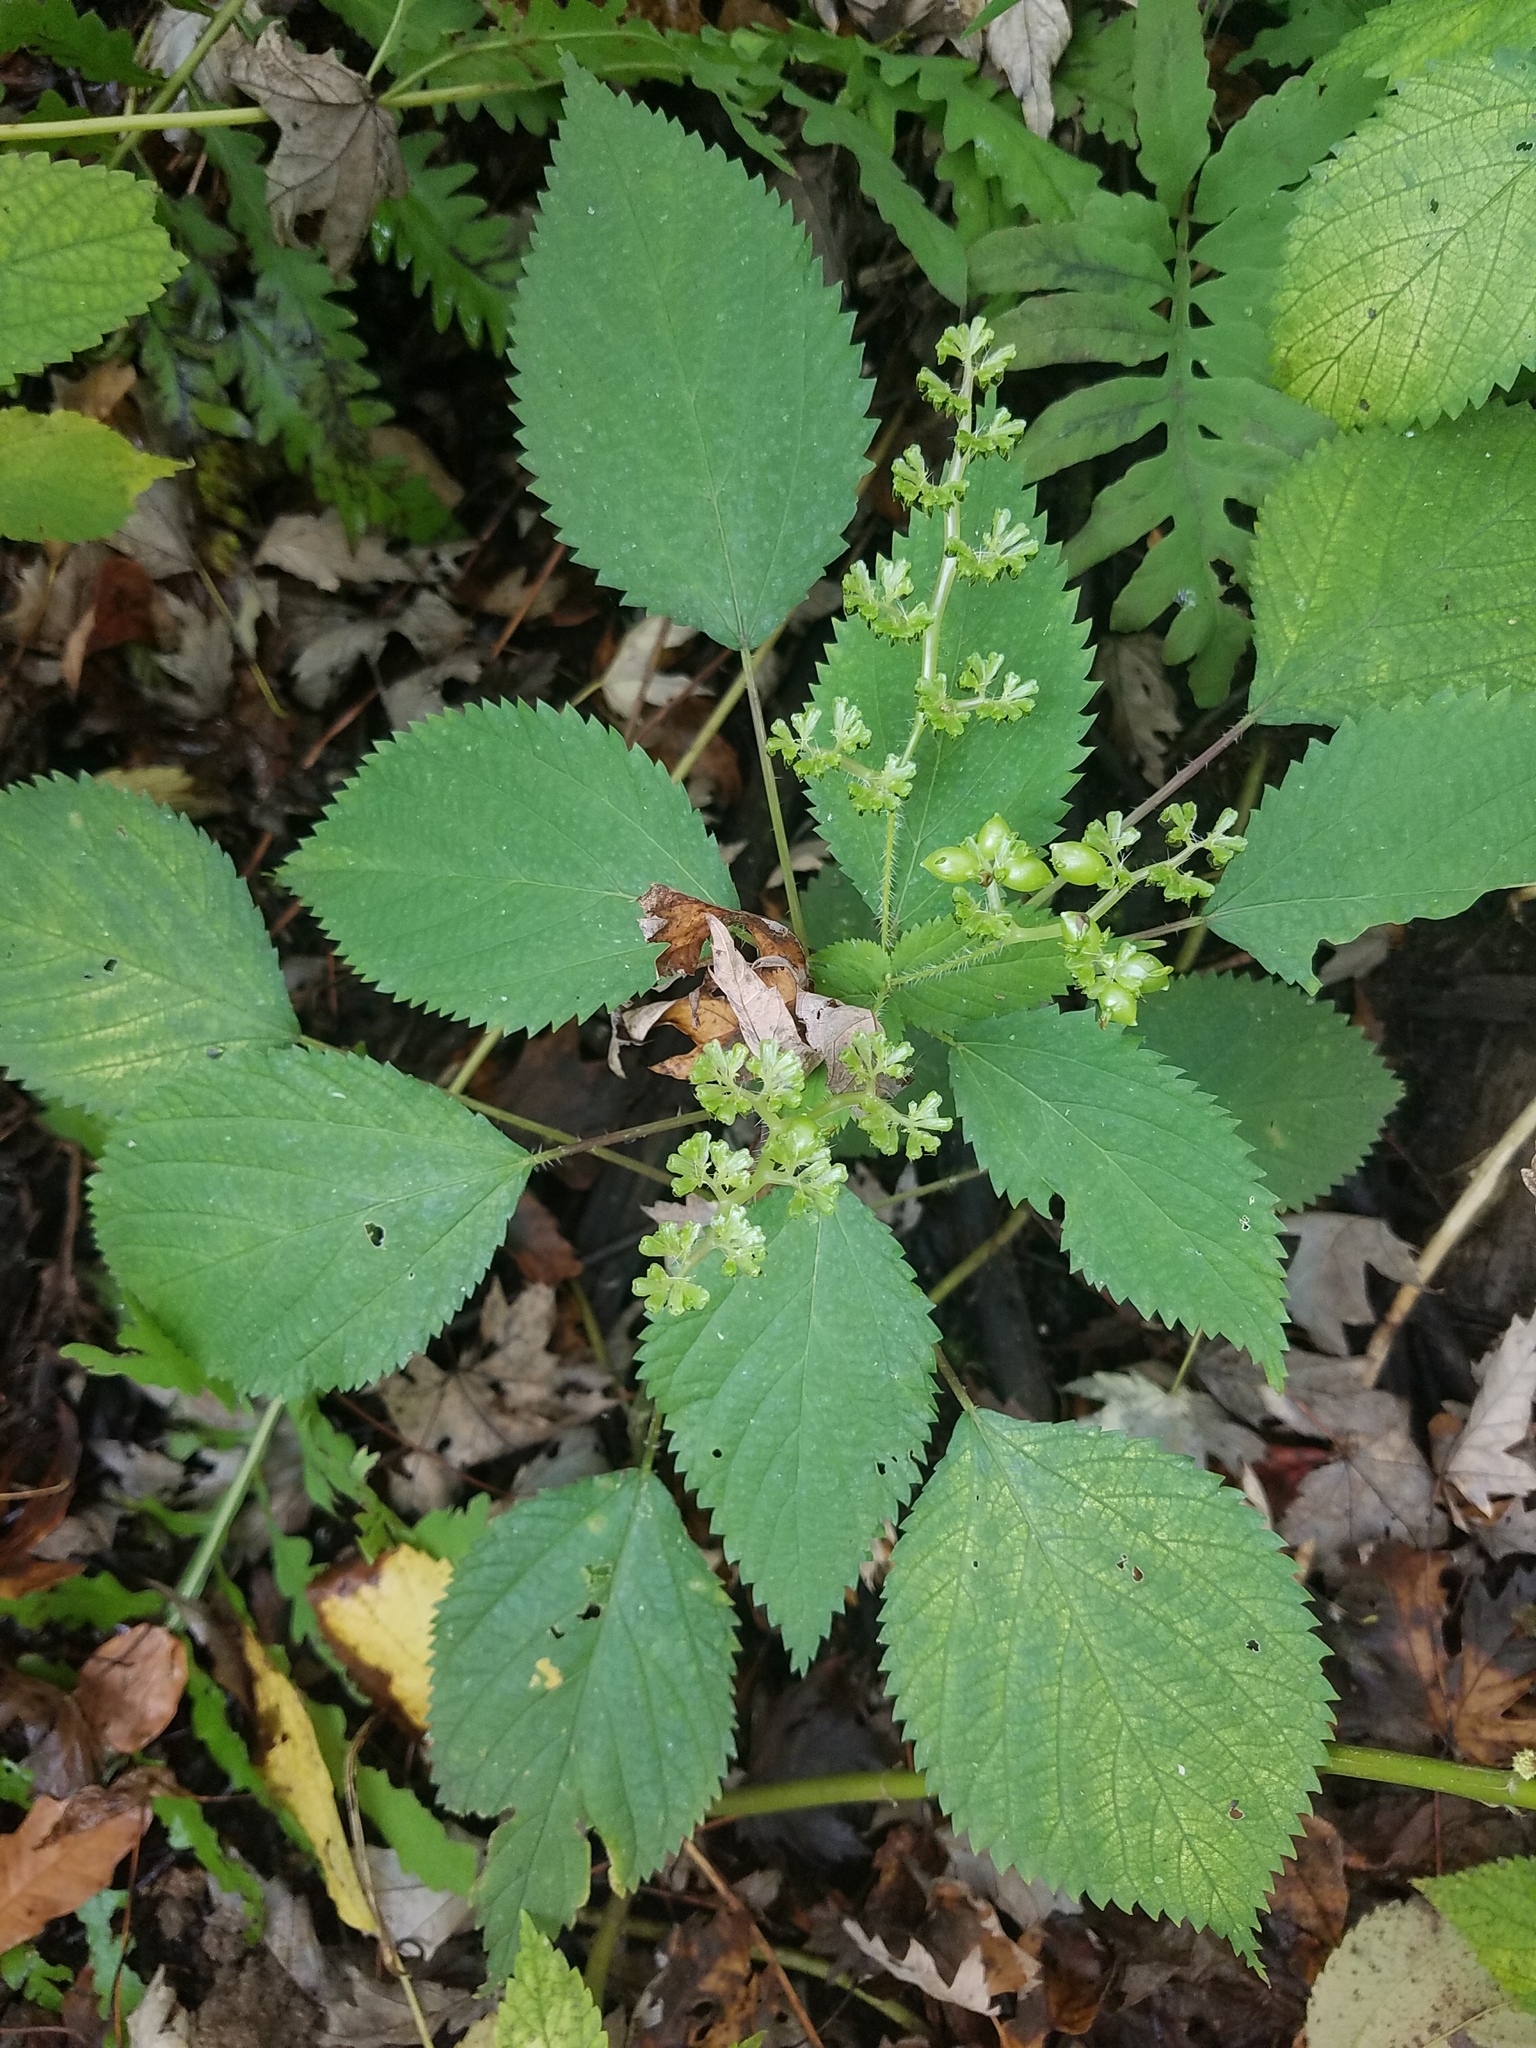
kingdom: Plantae
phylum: Tracheophyta
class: Magnoliopsida
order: Rosales
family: Urticaceae
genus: Laportea
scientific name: Laportea canadensis
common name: Canada nettle
